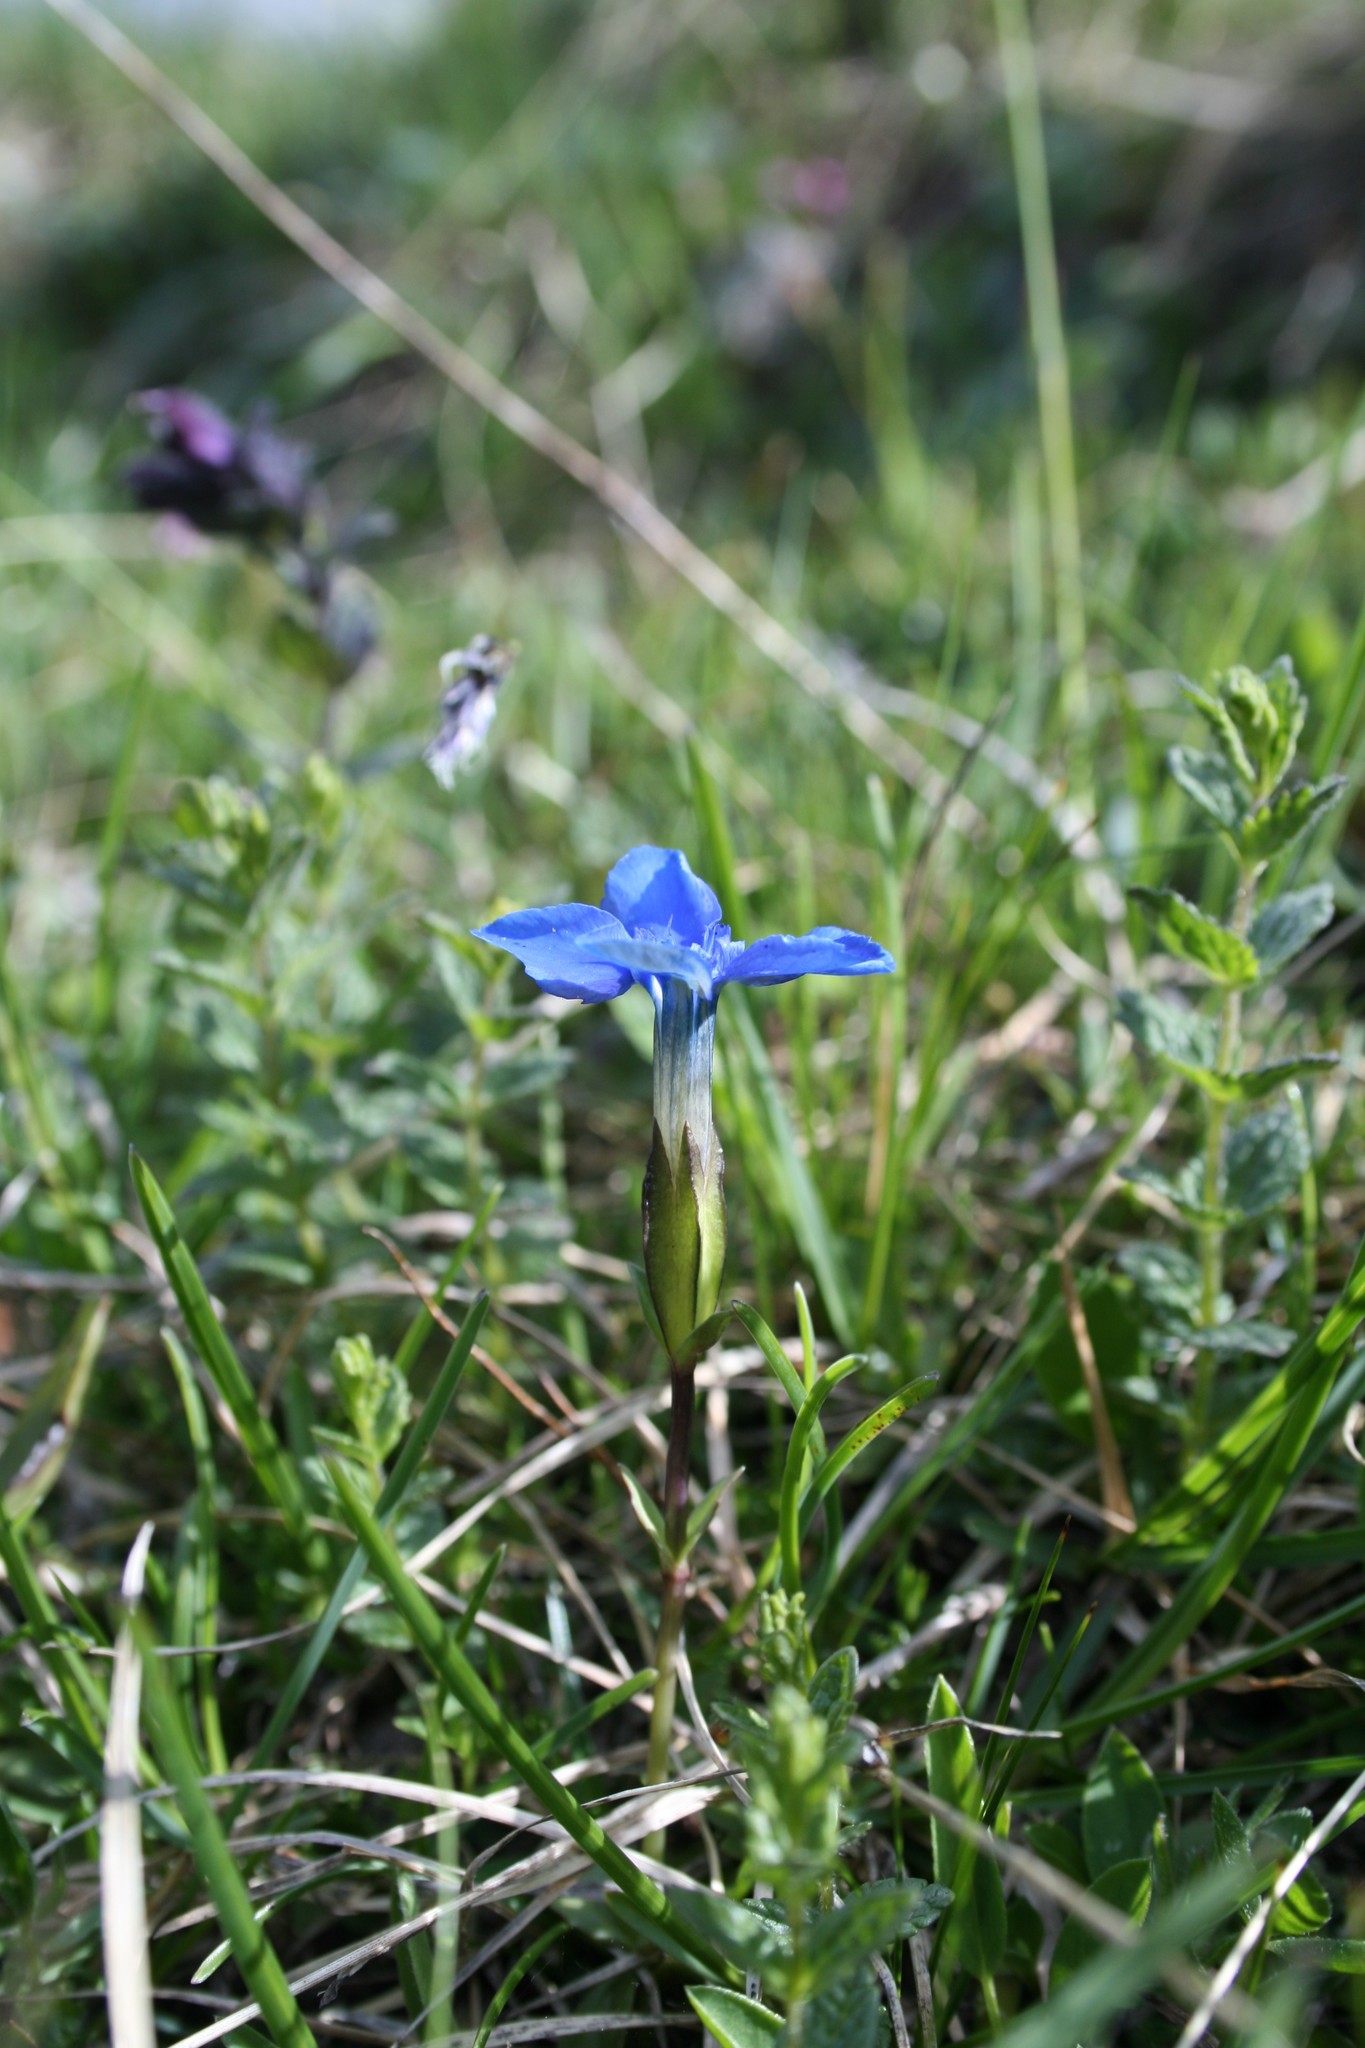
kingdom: Plantae
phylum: Tracheophyta
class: Magnoliopsida
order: Gentianales
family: Gentianaceae
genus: Gentiana
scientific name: Gentiana verna
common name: Spring gentian
